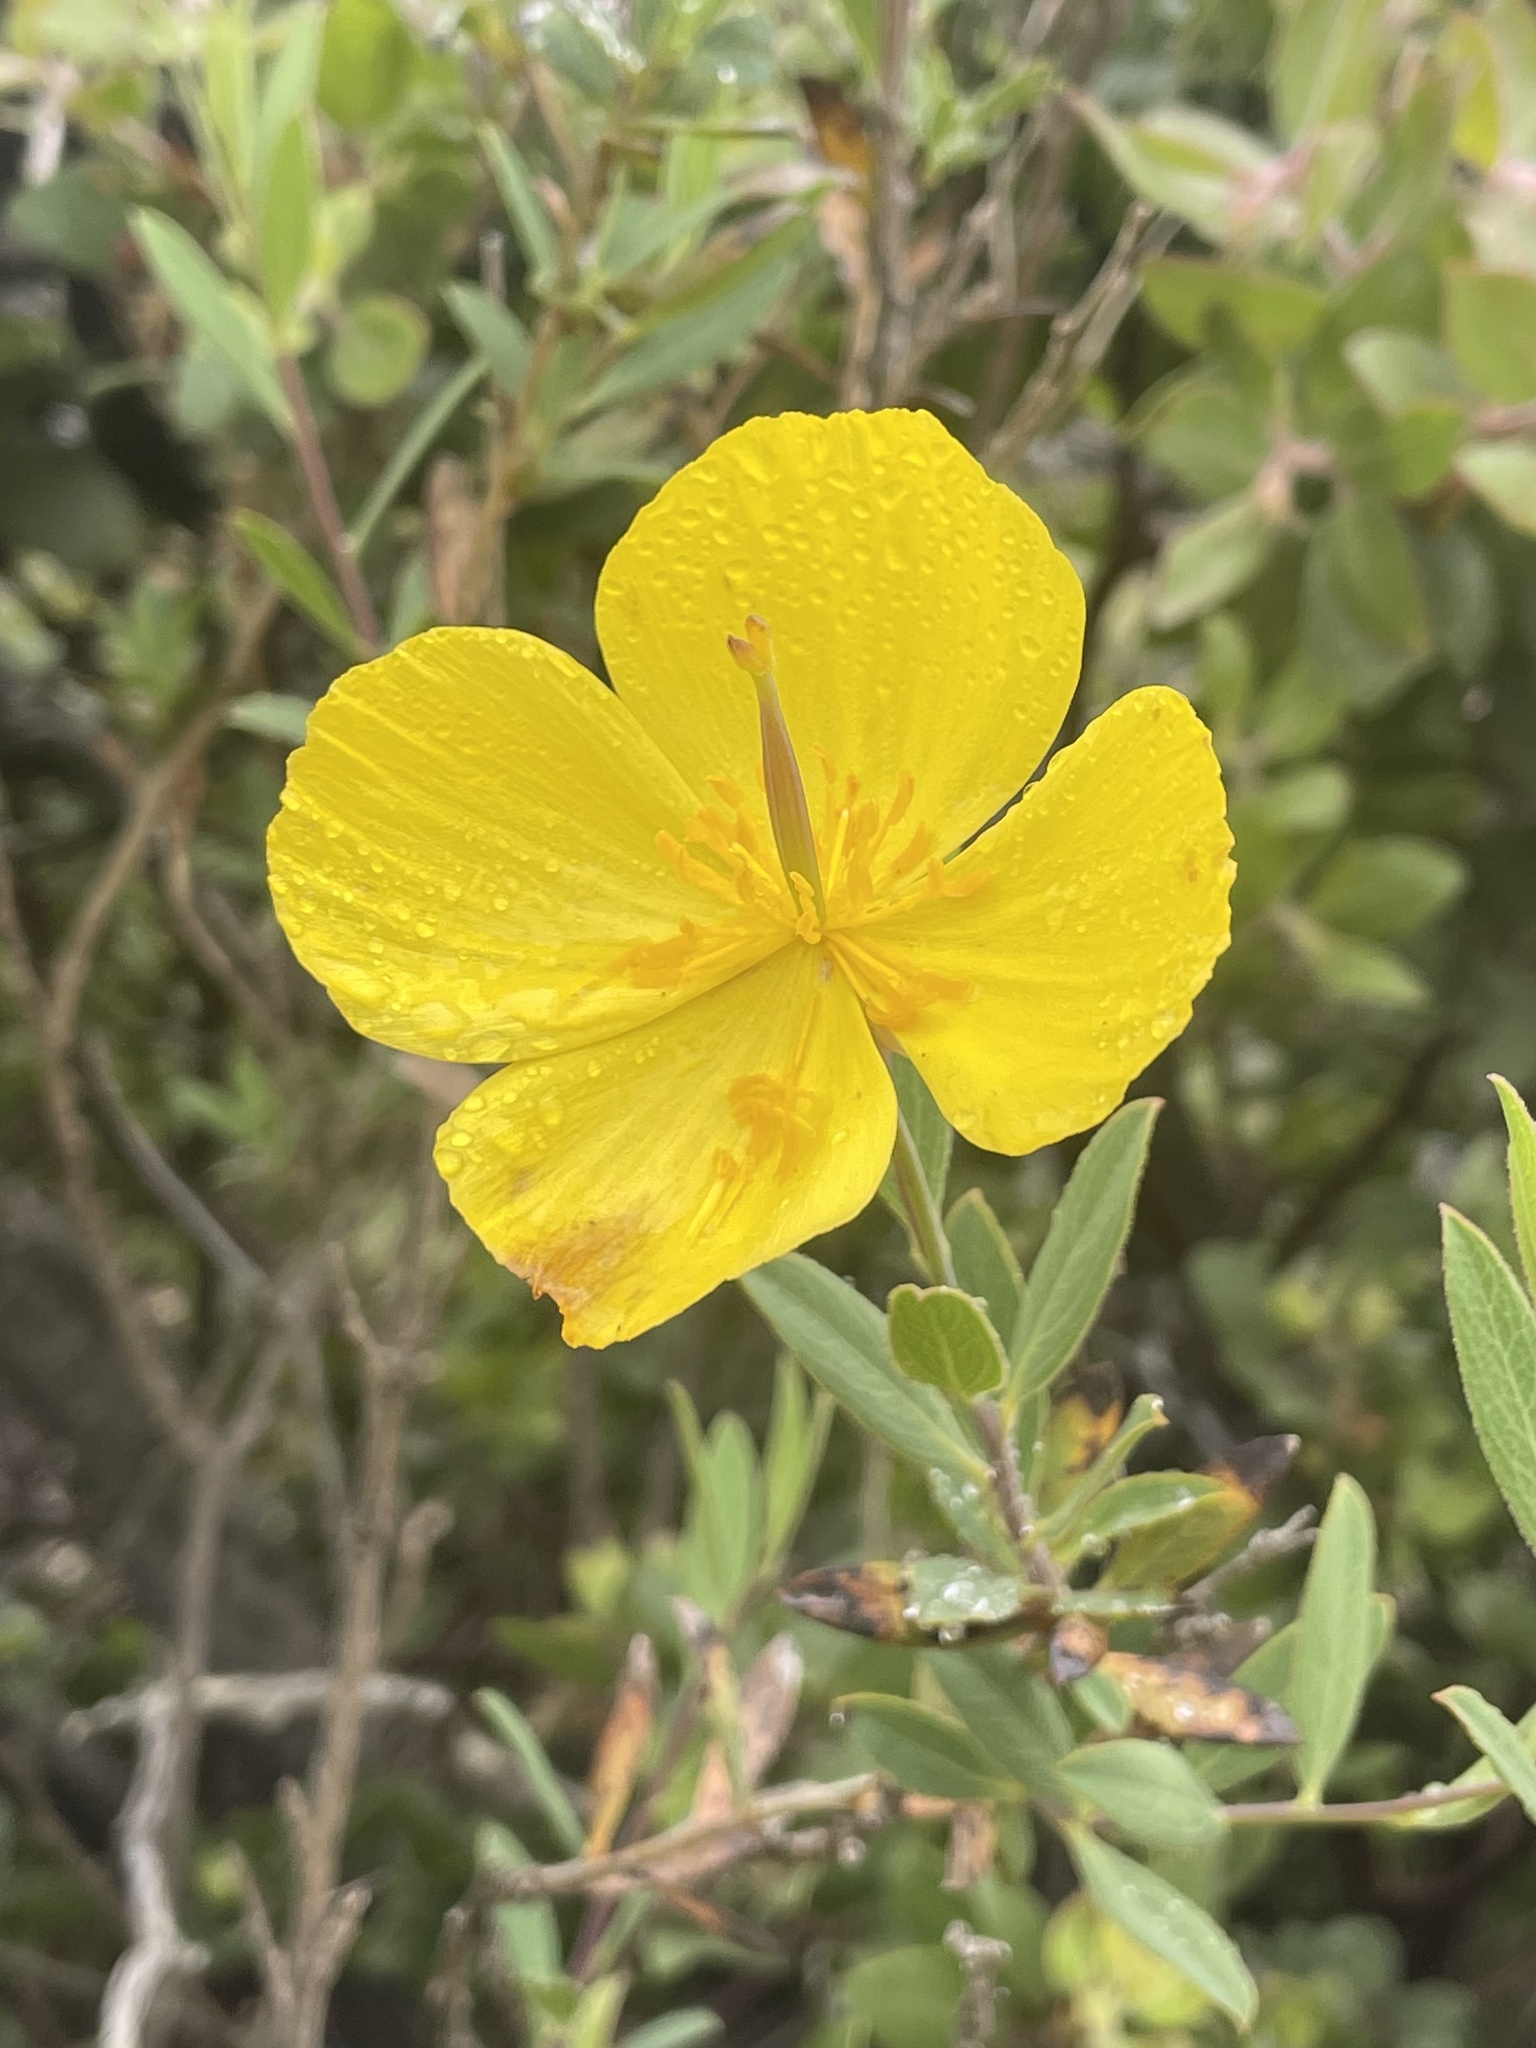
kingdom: Plantae
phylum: Tracheophyta
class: Magnoliopsida
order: Ranunculales
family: Papaveraceae
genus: Dendromecon
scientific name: Dendromecon rigida
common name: Tree poppy
